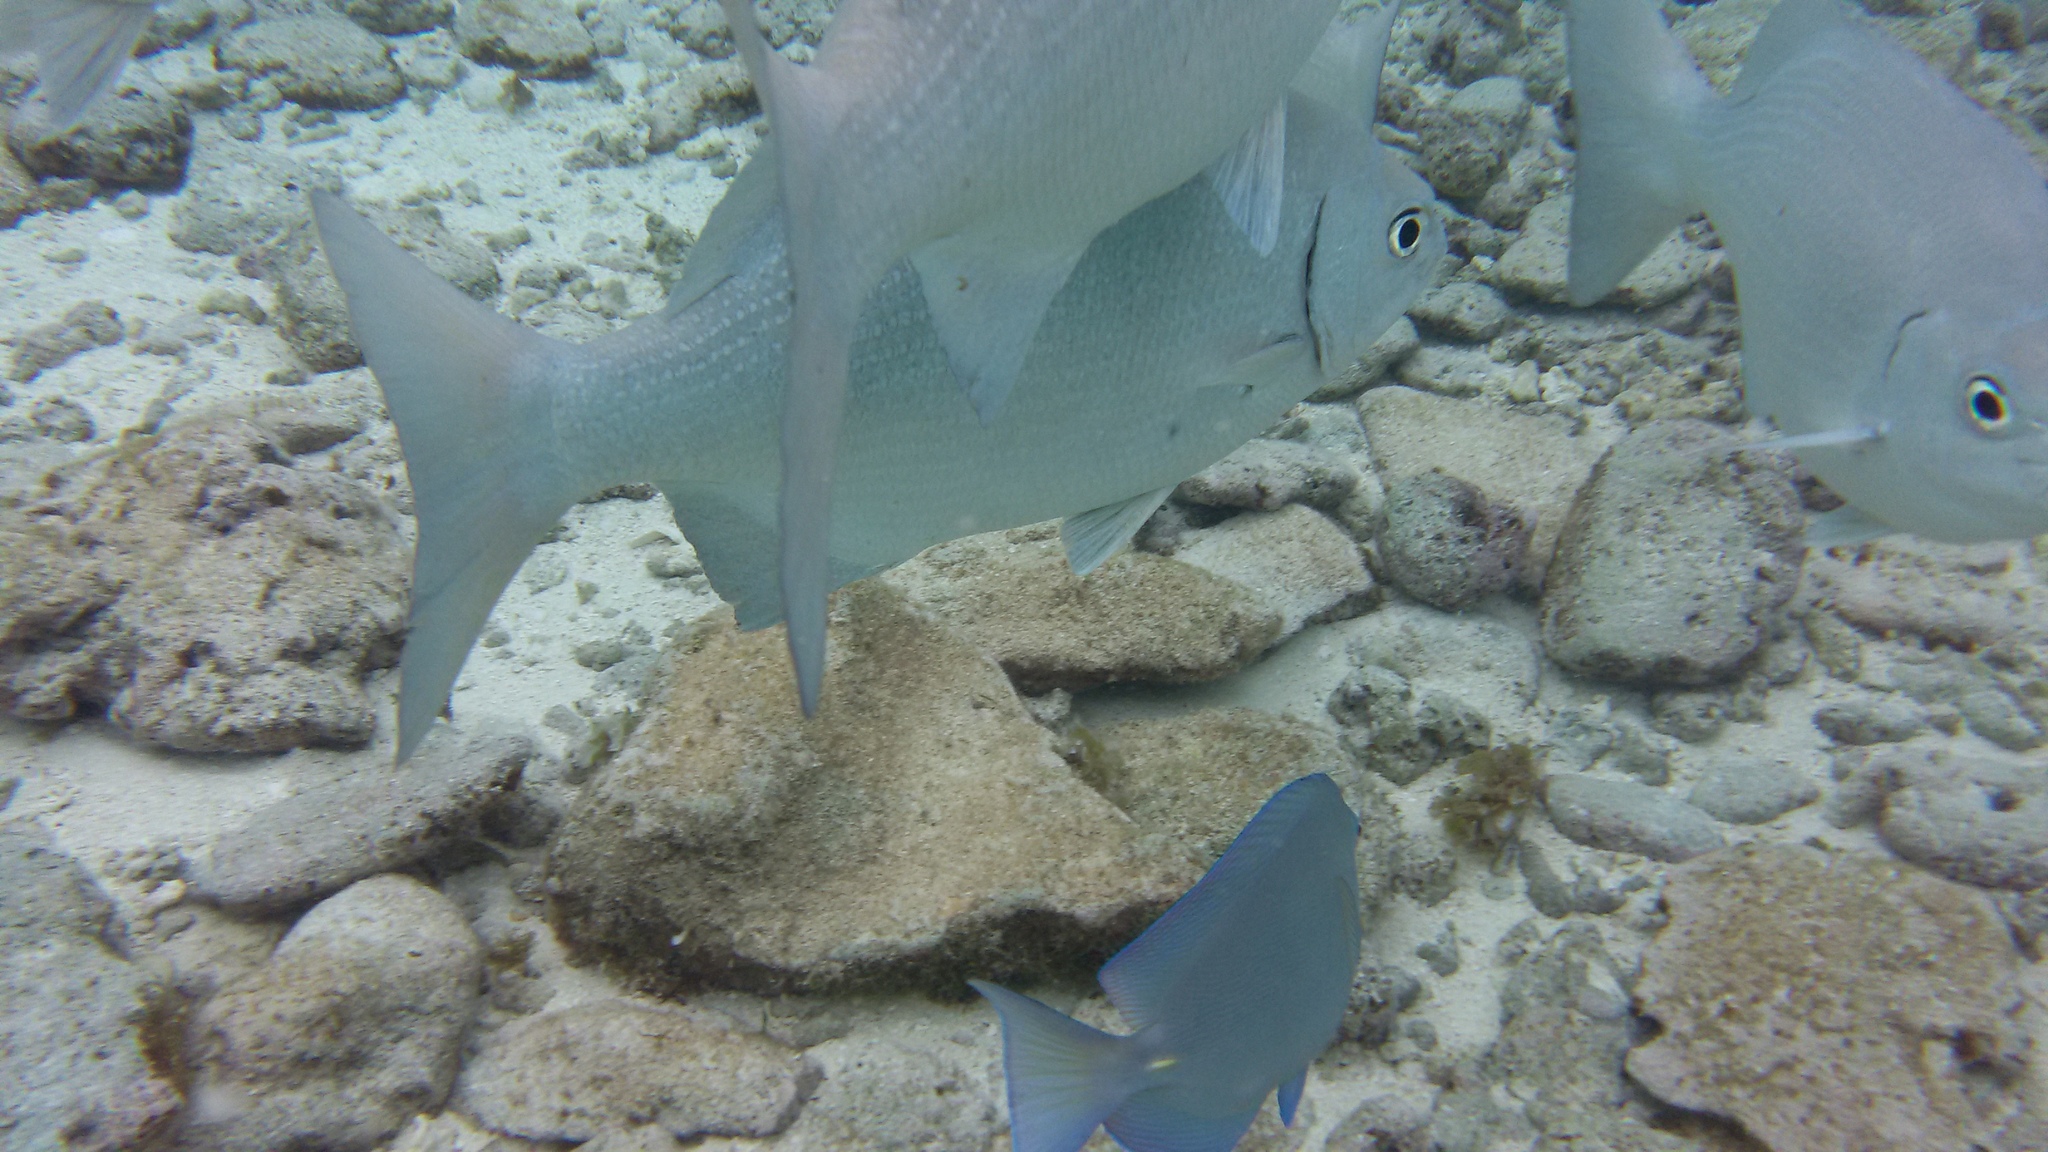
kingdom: Animalia
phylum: Chordata
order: Perciformes
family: Kyphosidae
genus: Kyphosus
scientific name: Kyphosus cinerascens
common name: Topsail drummer
